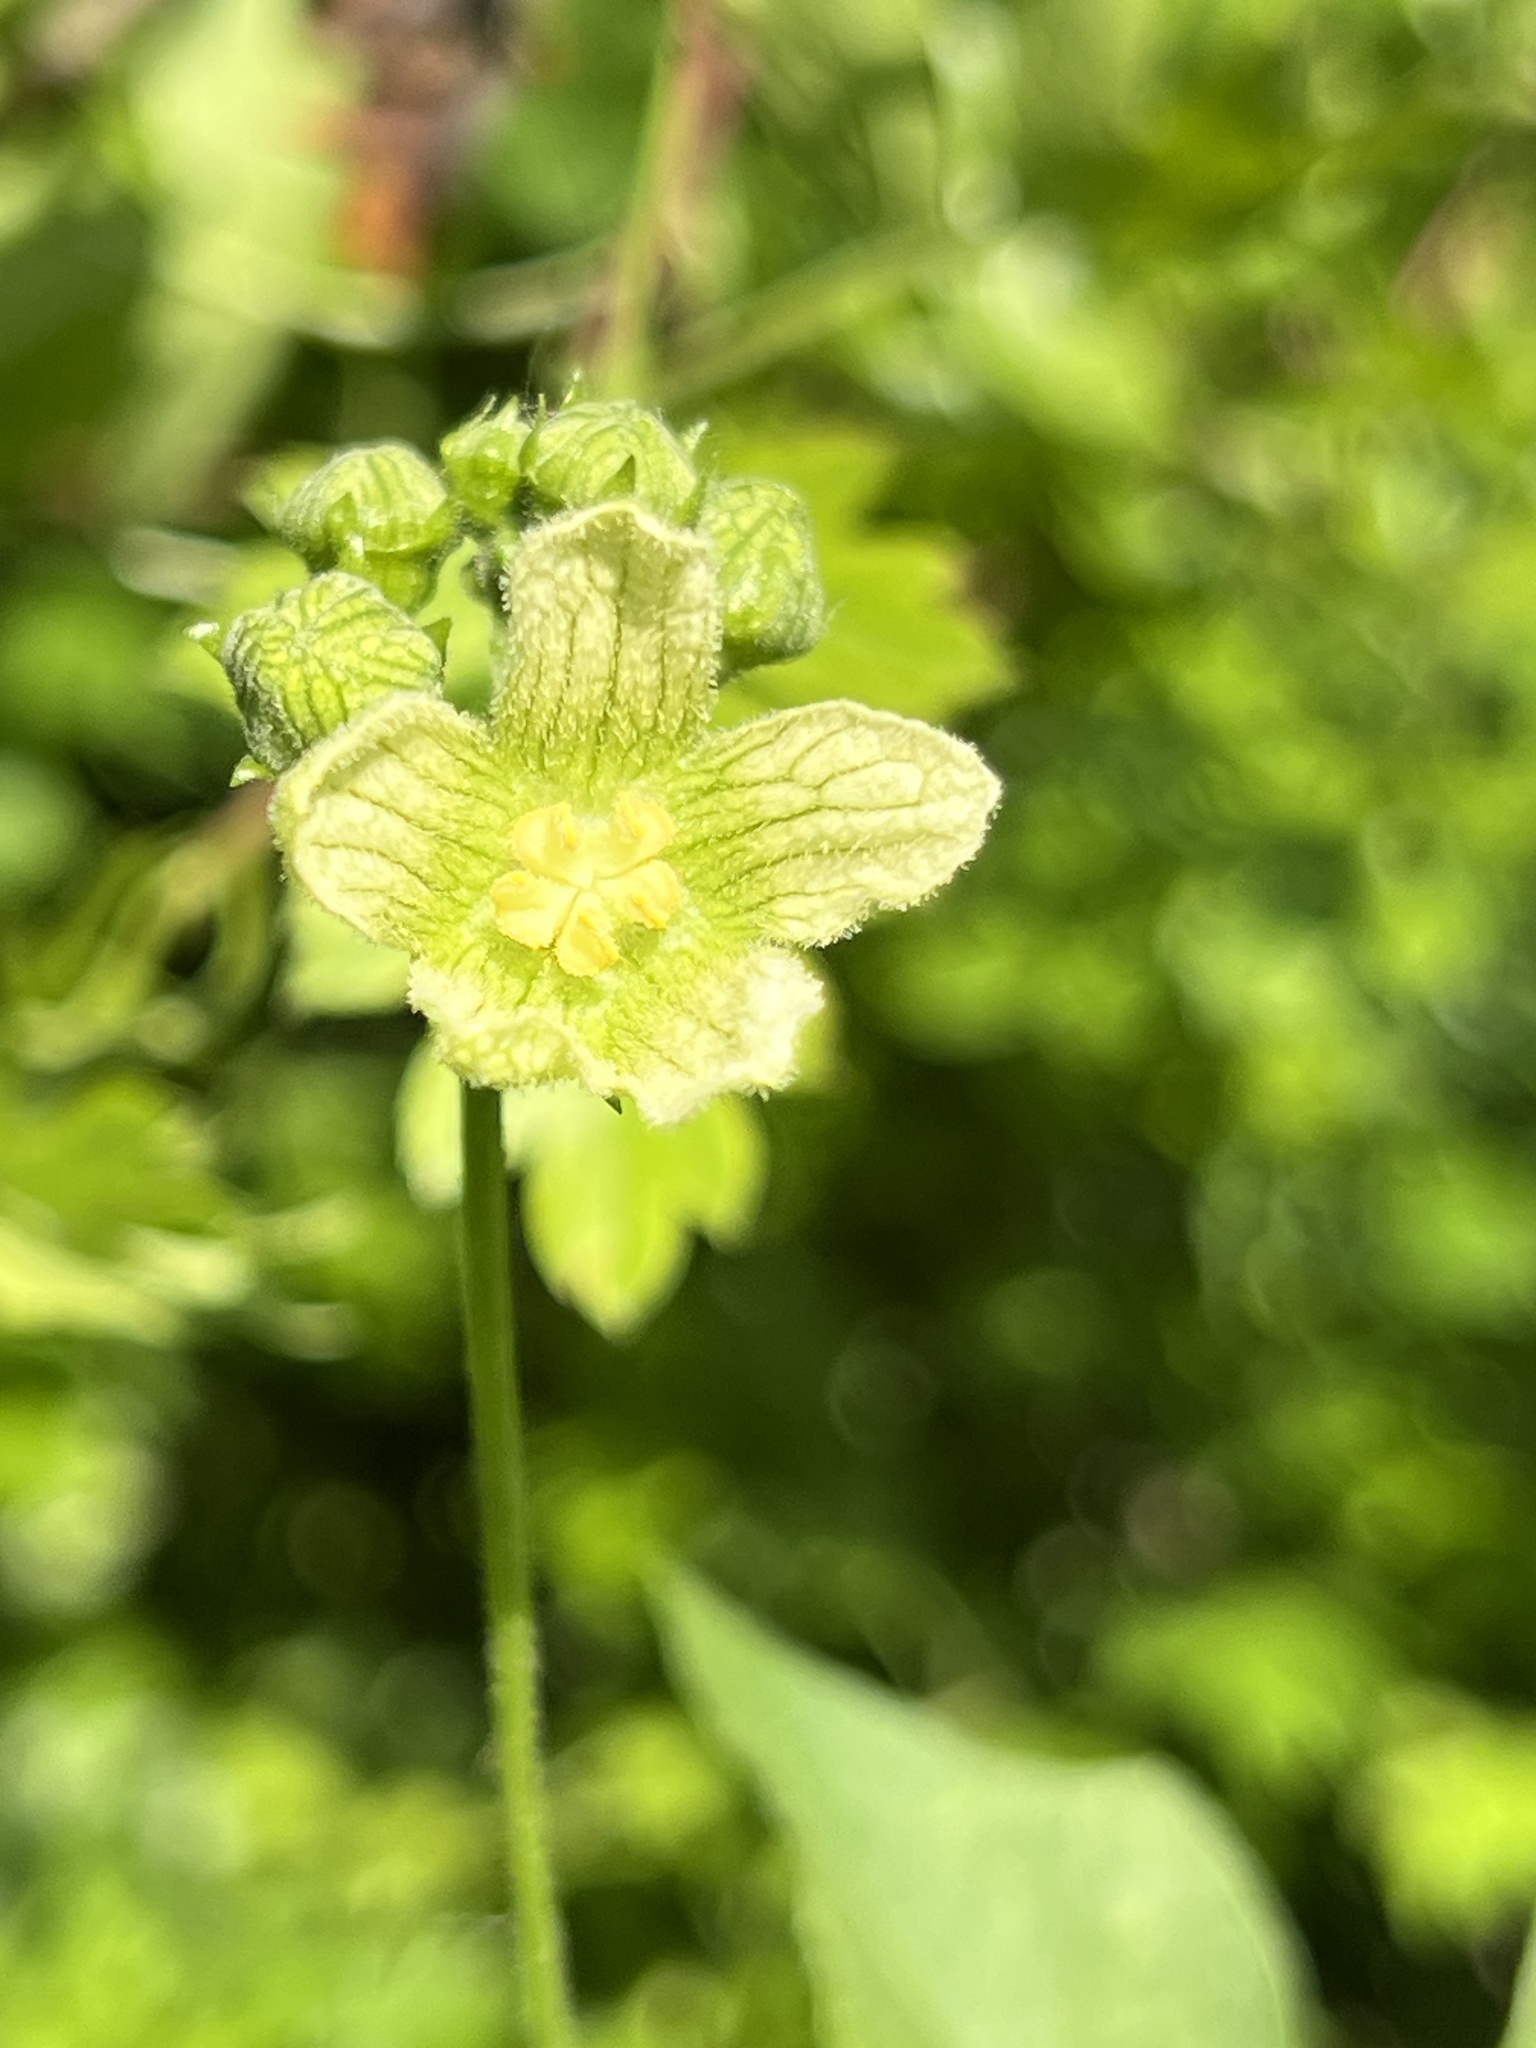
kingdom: Plantae
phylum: Tracheophyta
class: Magnoliopsida
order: Cucurbitales
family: Cucurbitaceae
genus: Bryonia
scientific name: Bryonia cretica
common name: Cretan bryony
